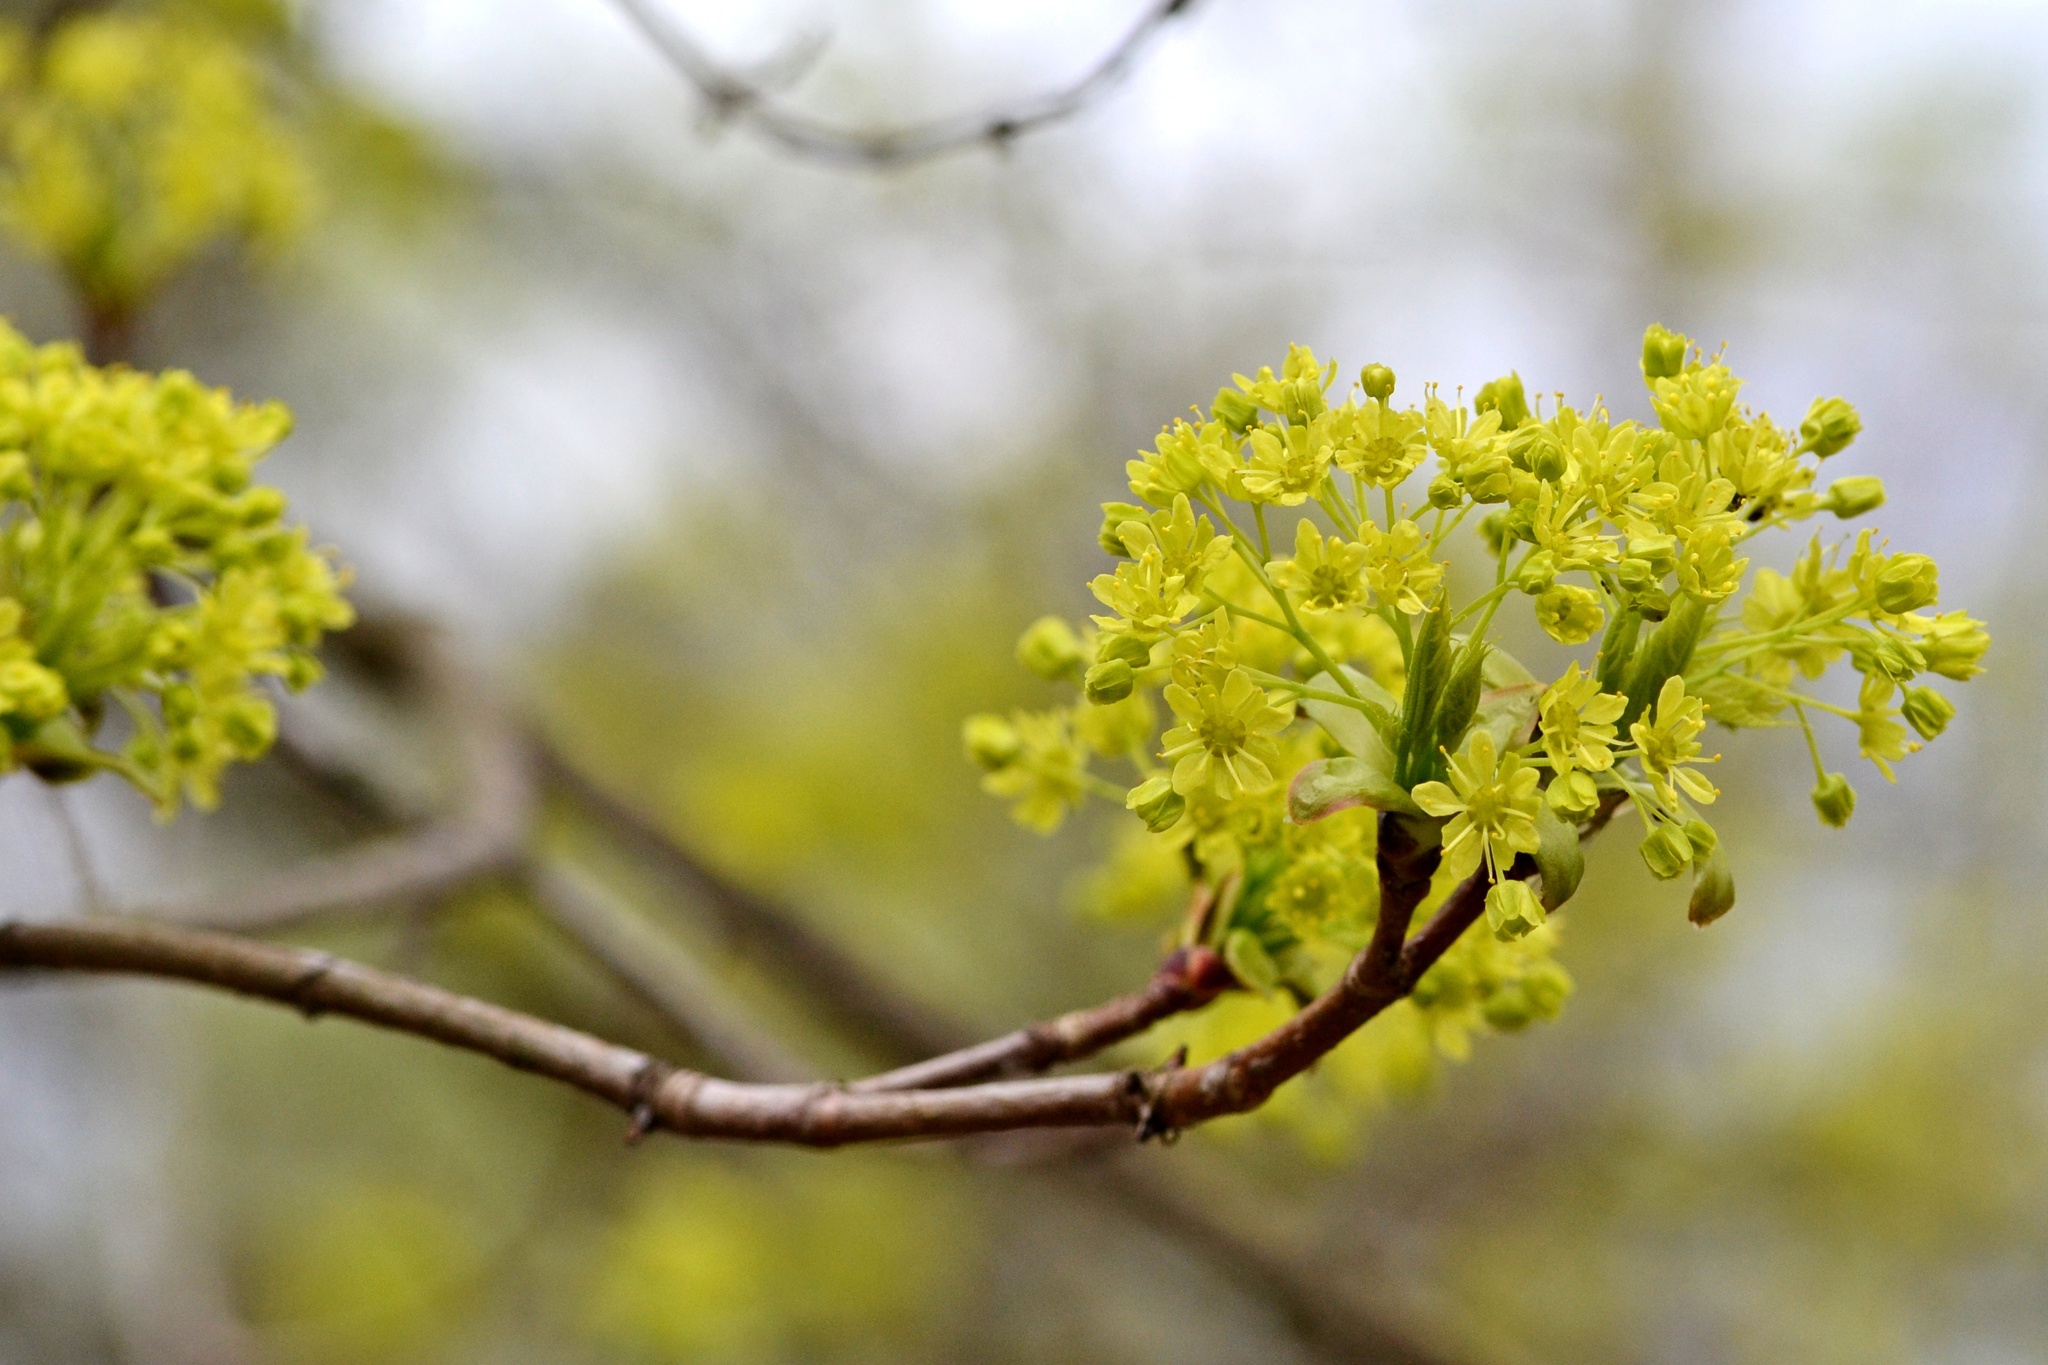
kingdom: Plantae
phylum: Tracheophyta
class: Magnoliopsida
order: Sapindales
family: Sapindaceae
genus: Acer
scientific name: Acer platanoides
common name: Norway maple
